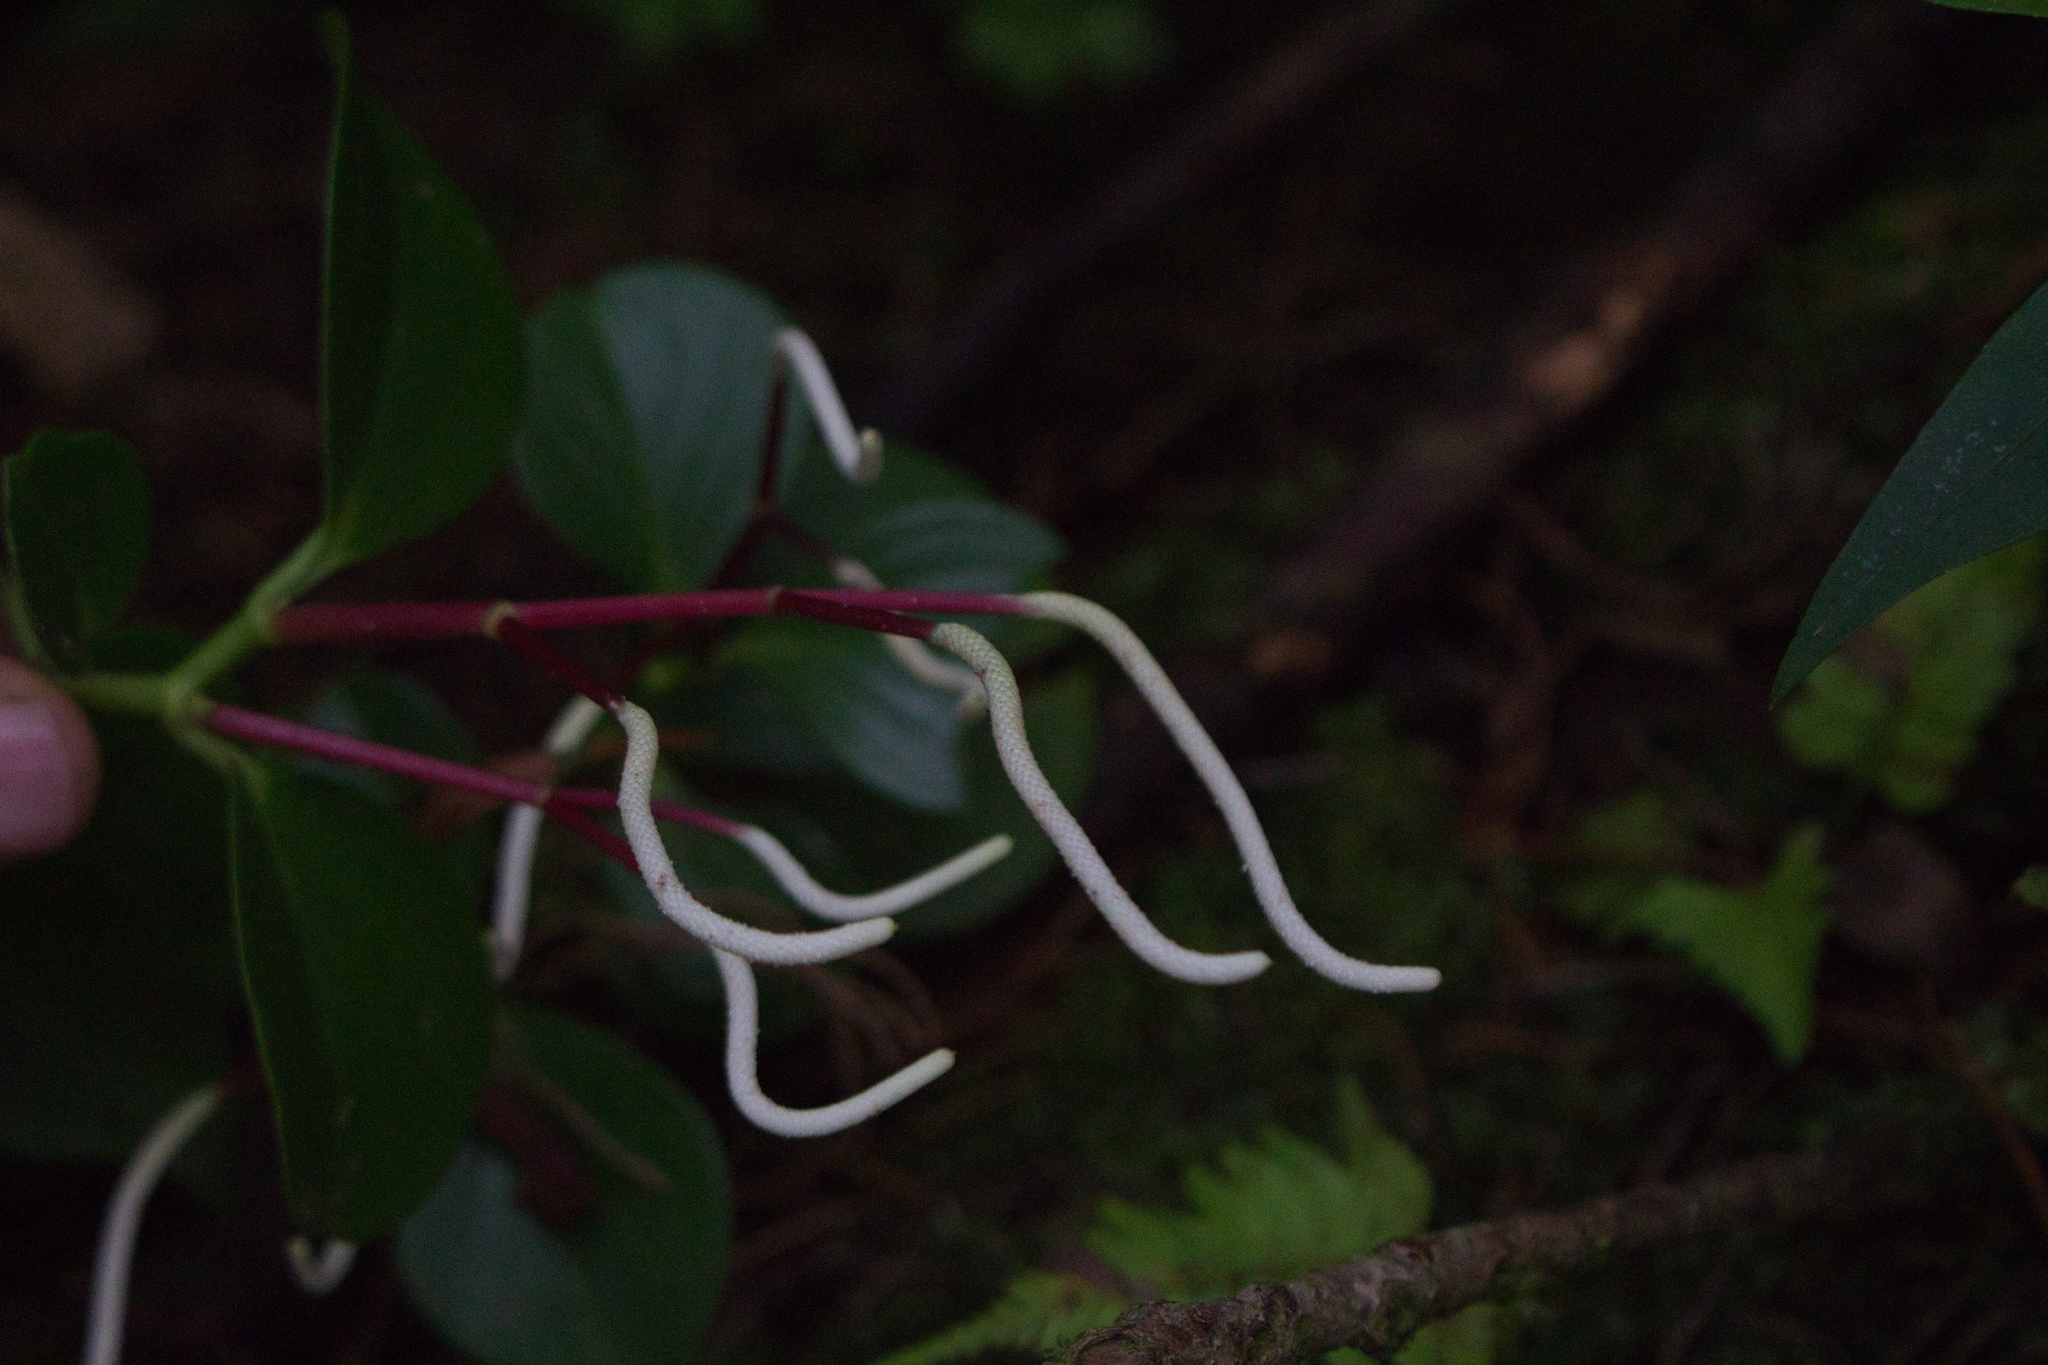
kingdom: Plantae
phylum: Tracheophyta
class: Magnoliopsida
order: Piperales
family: Piperaceae
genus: Peperomia
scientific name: Peperomia pseudoalpina
